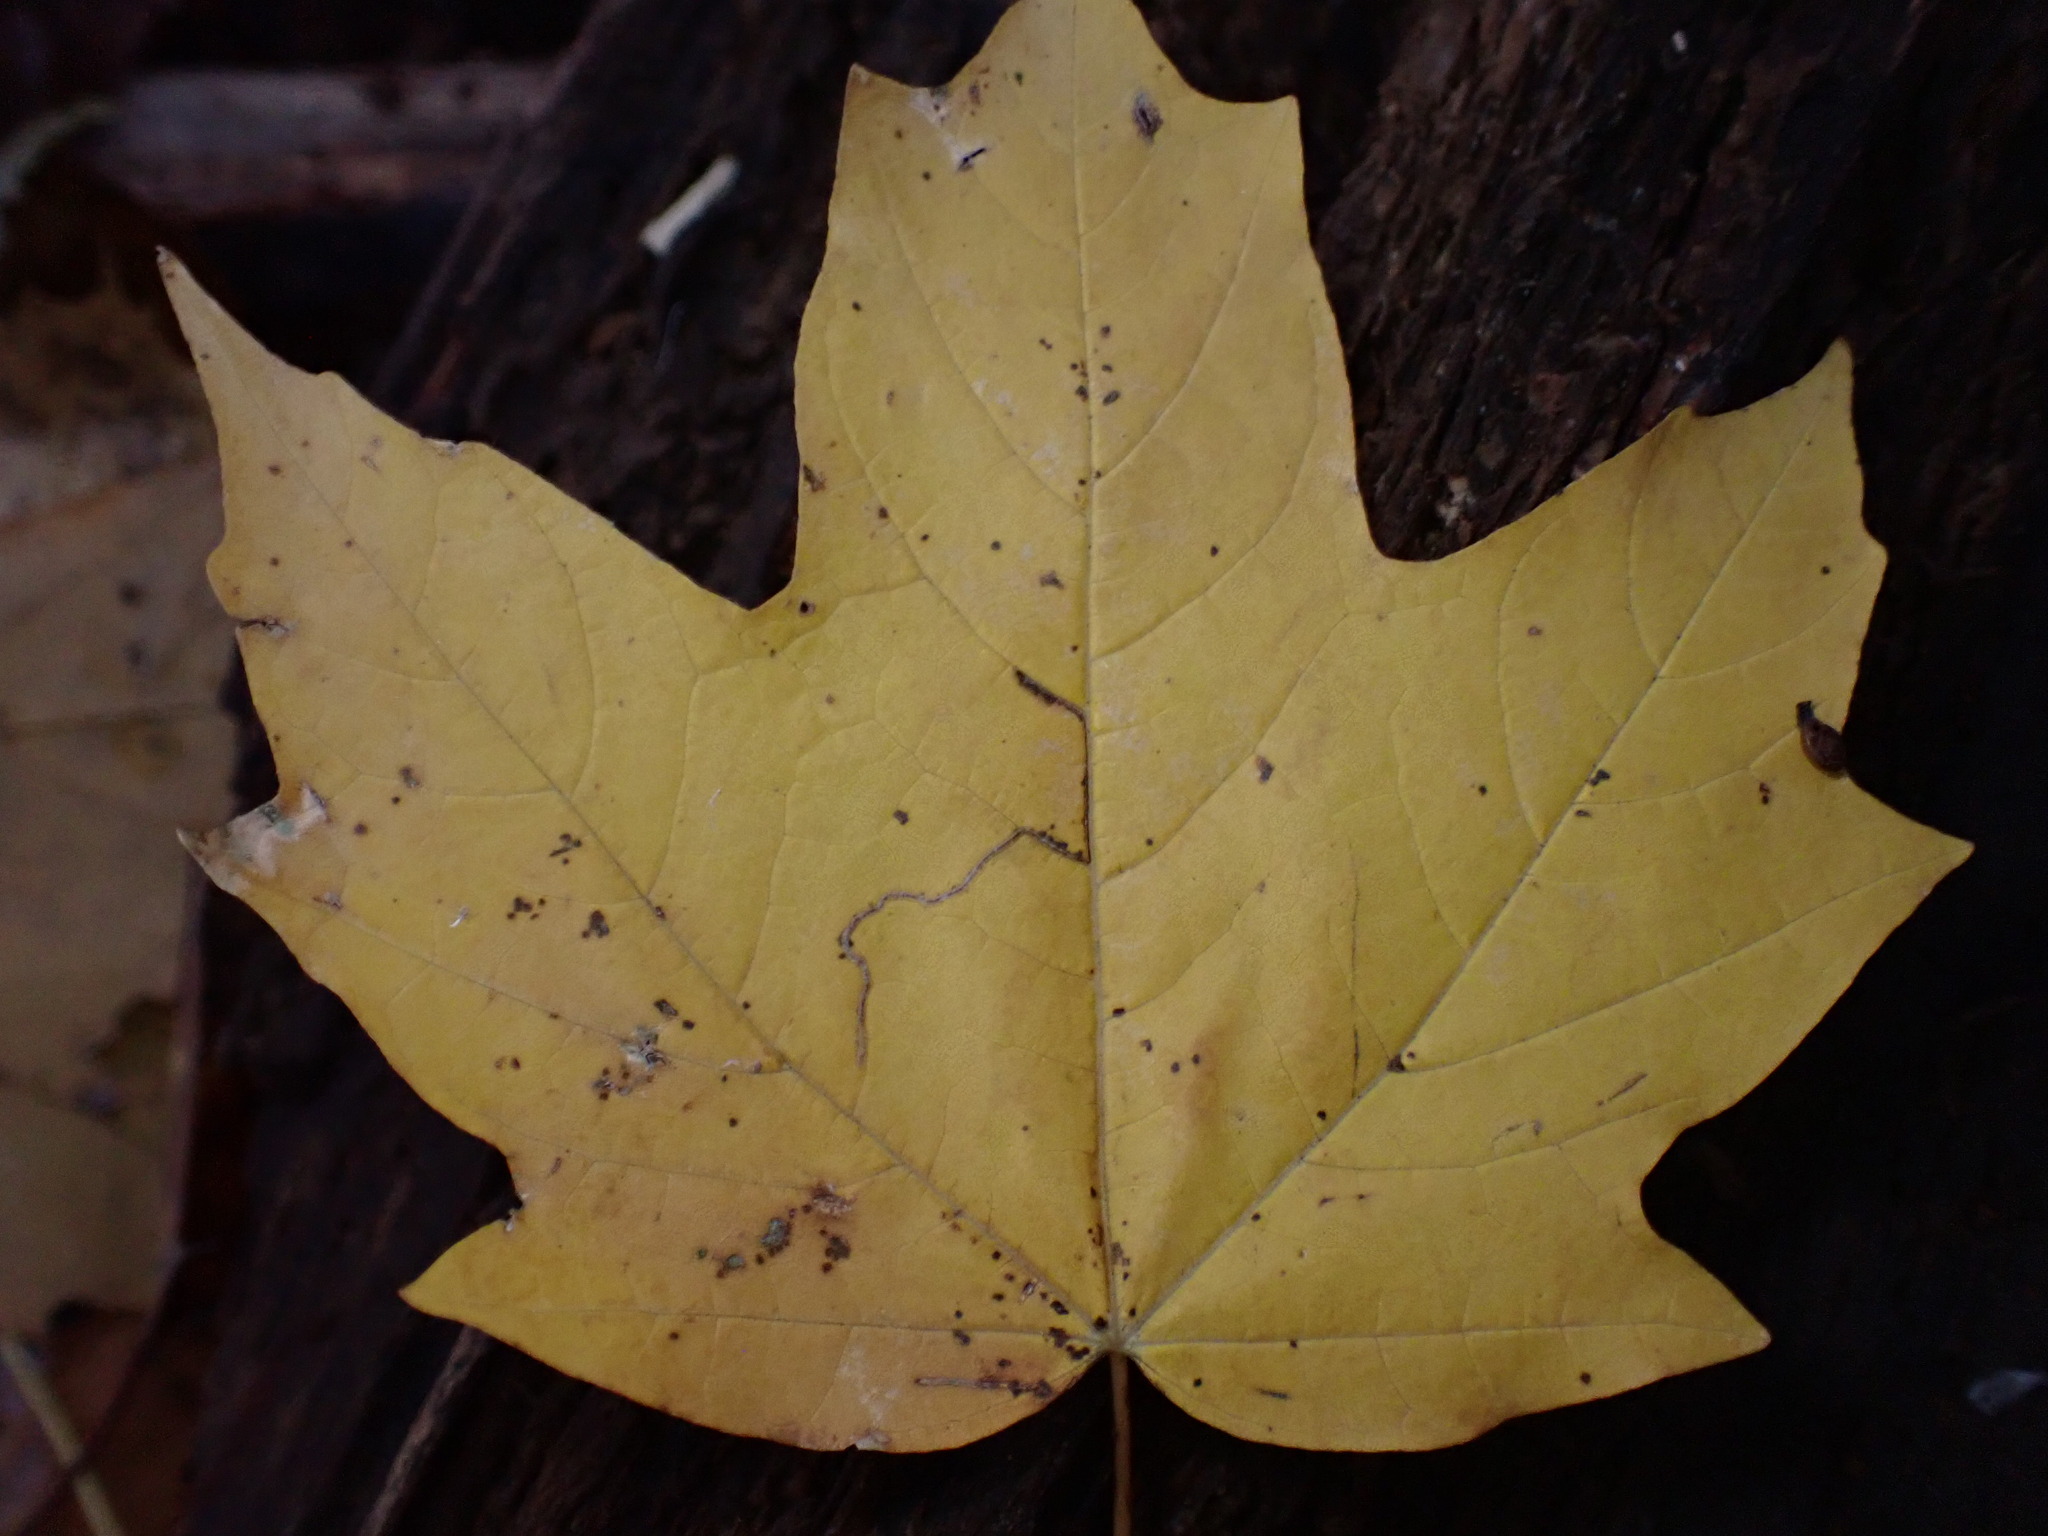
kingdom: Animalia
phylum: Arthropoda
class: Insecta
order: Lepidoptera
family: Nepticulidae
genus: Glaucolepis
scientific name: Glaucolepis saccharella
